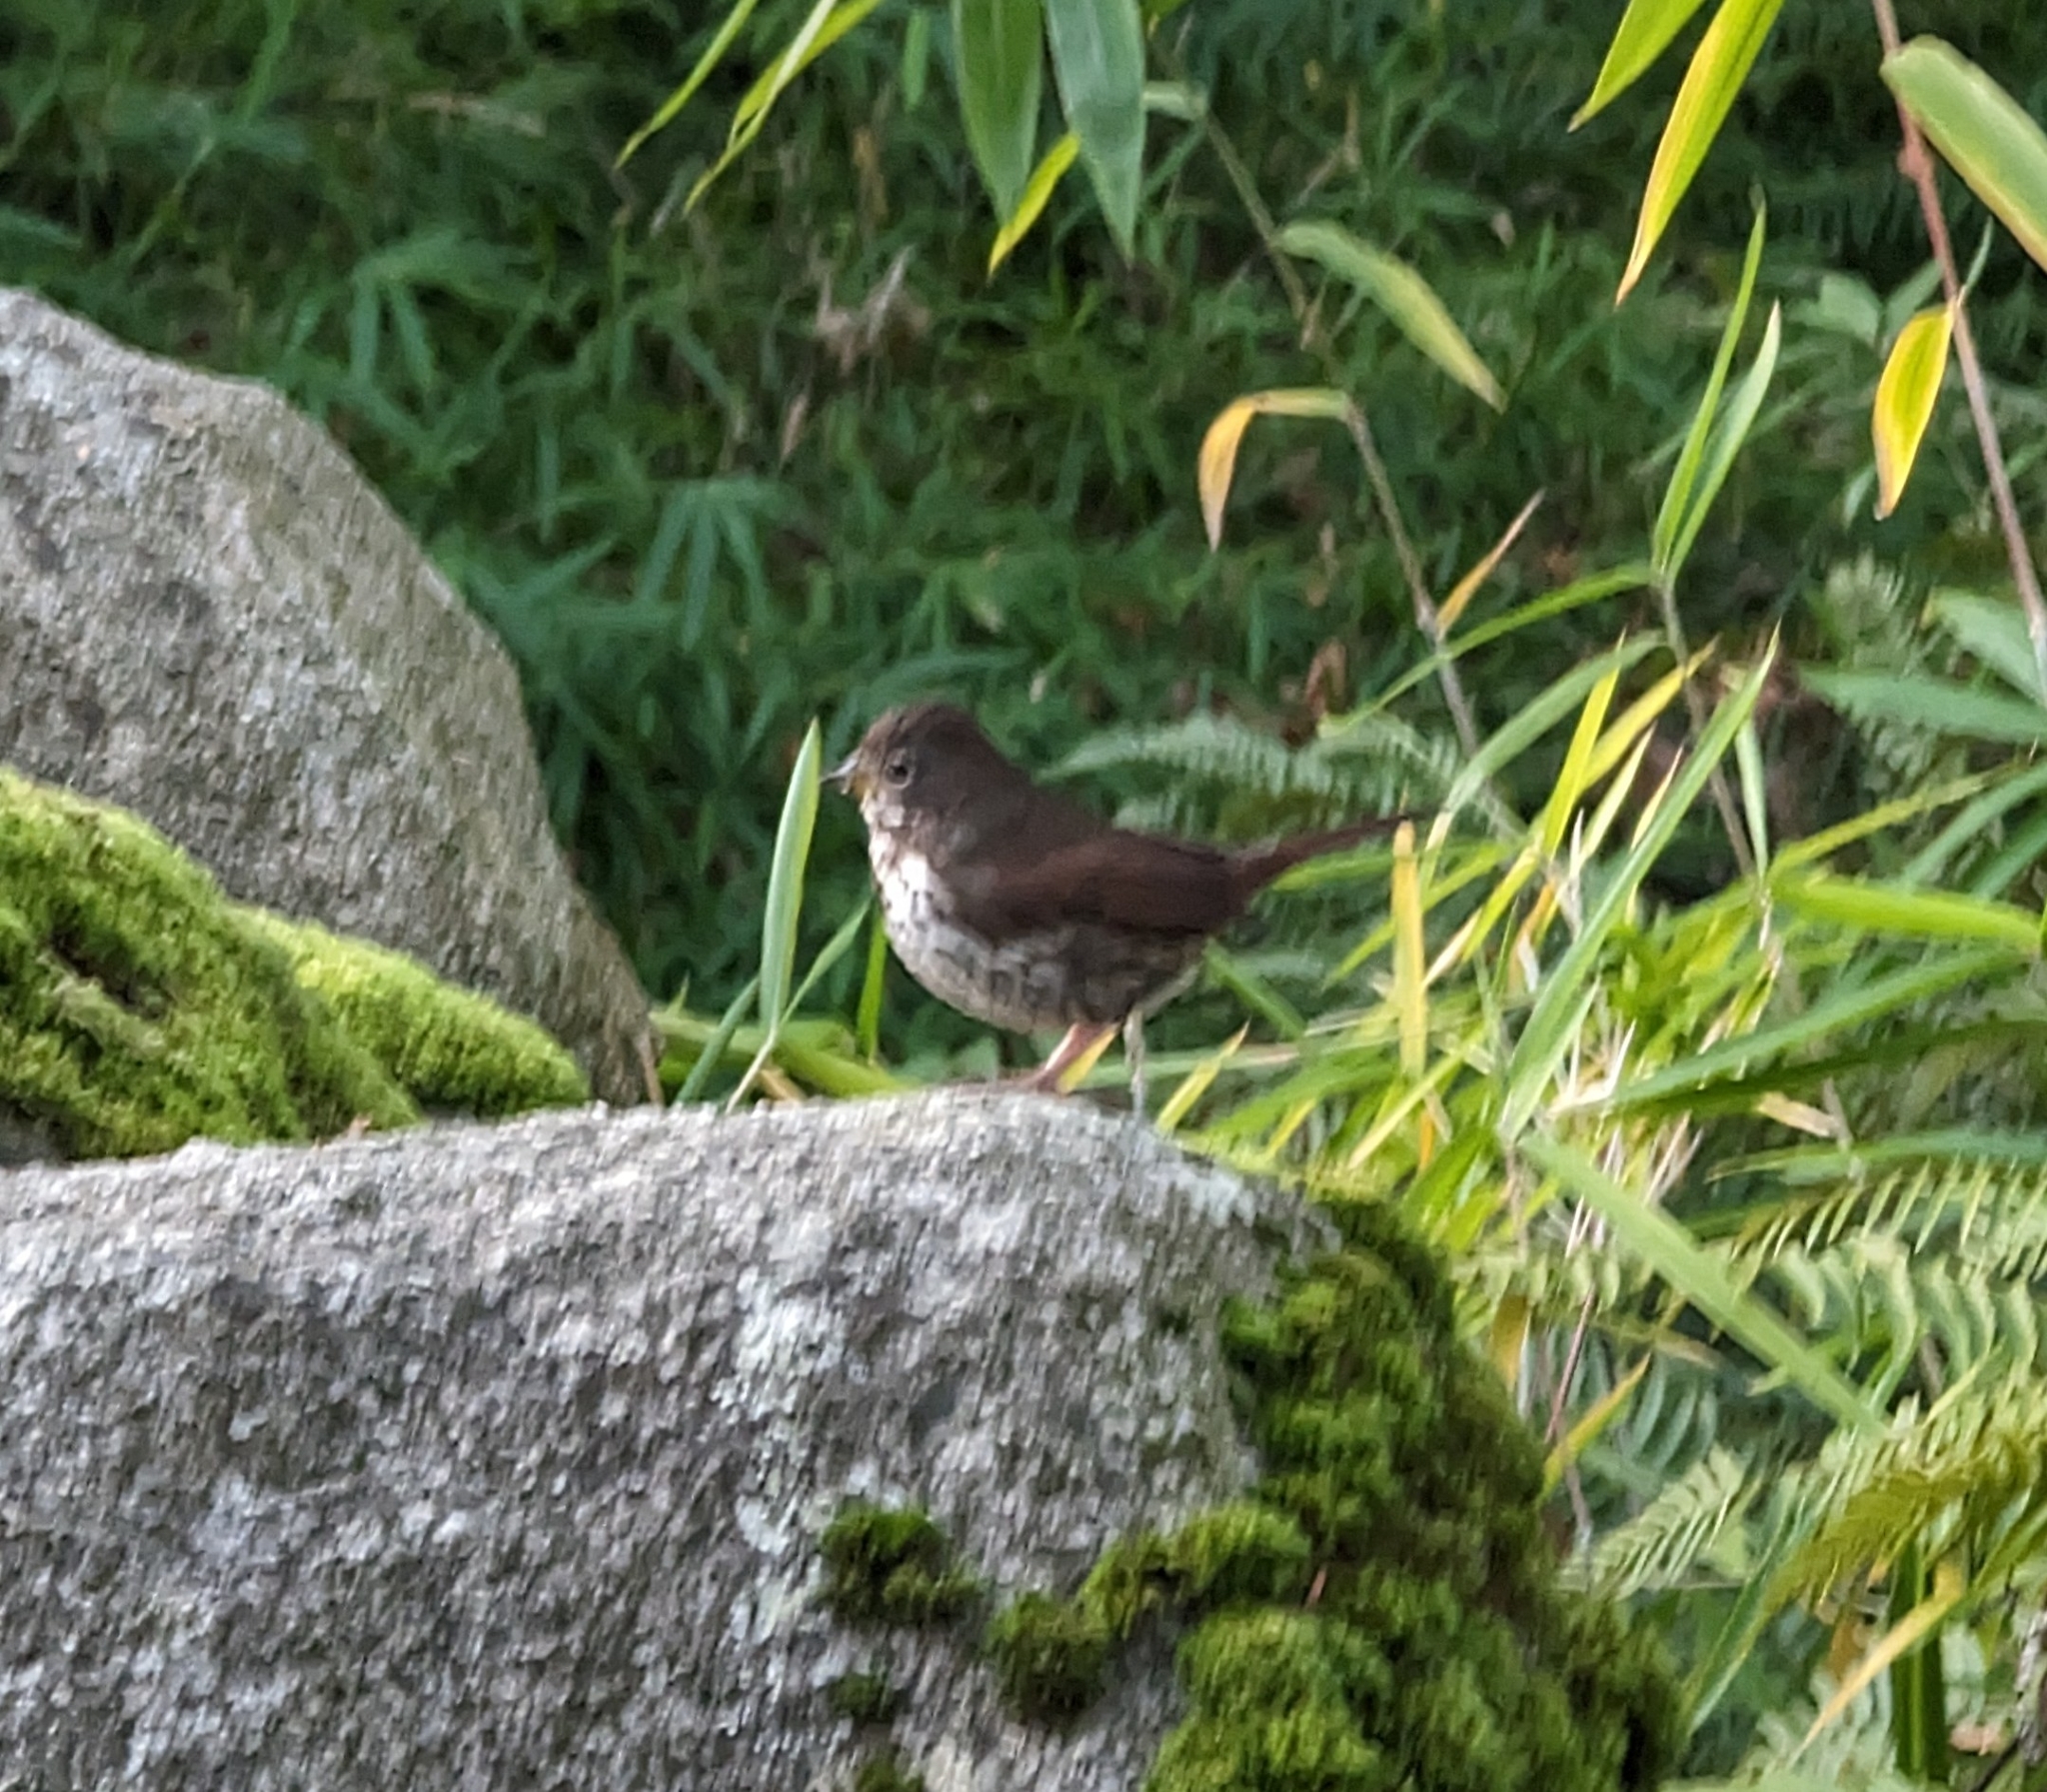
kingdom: Animalia
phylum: Chordata
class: Aves
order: Passeriformes
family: Passerellidae
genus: Passerella
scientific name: Passerella iliaca
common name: Fox sparrow
